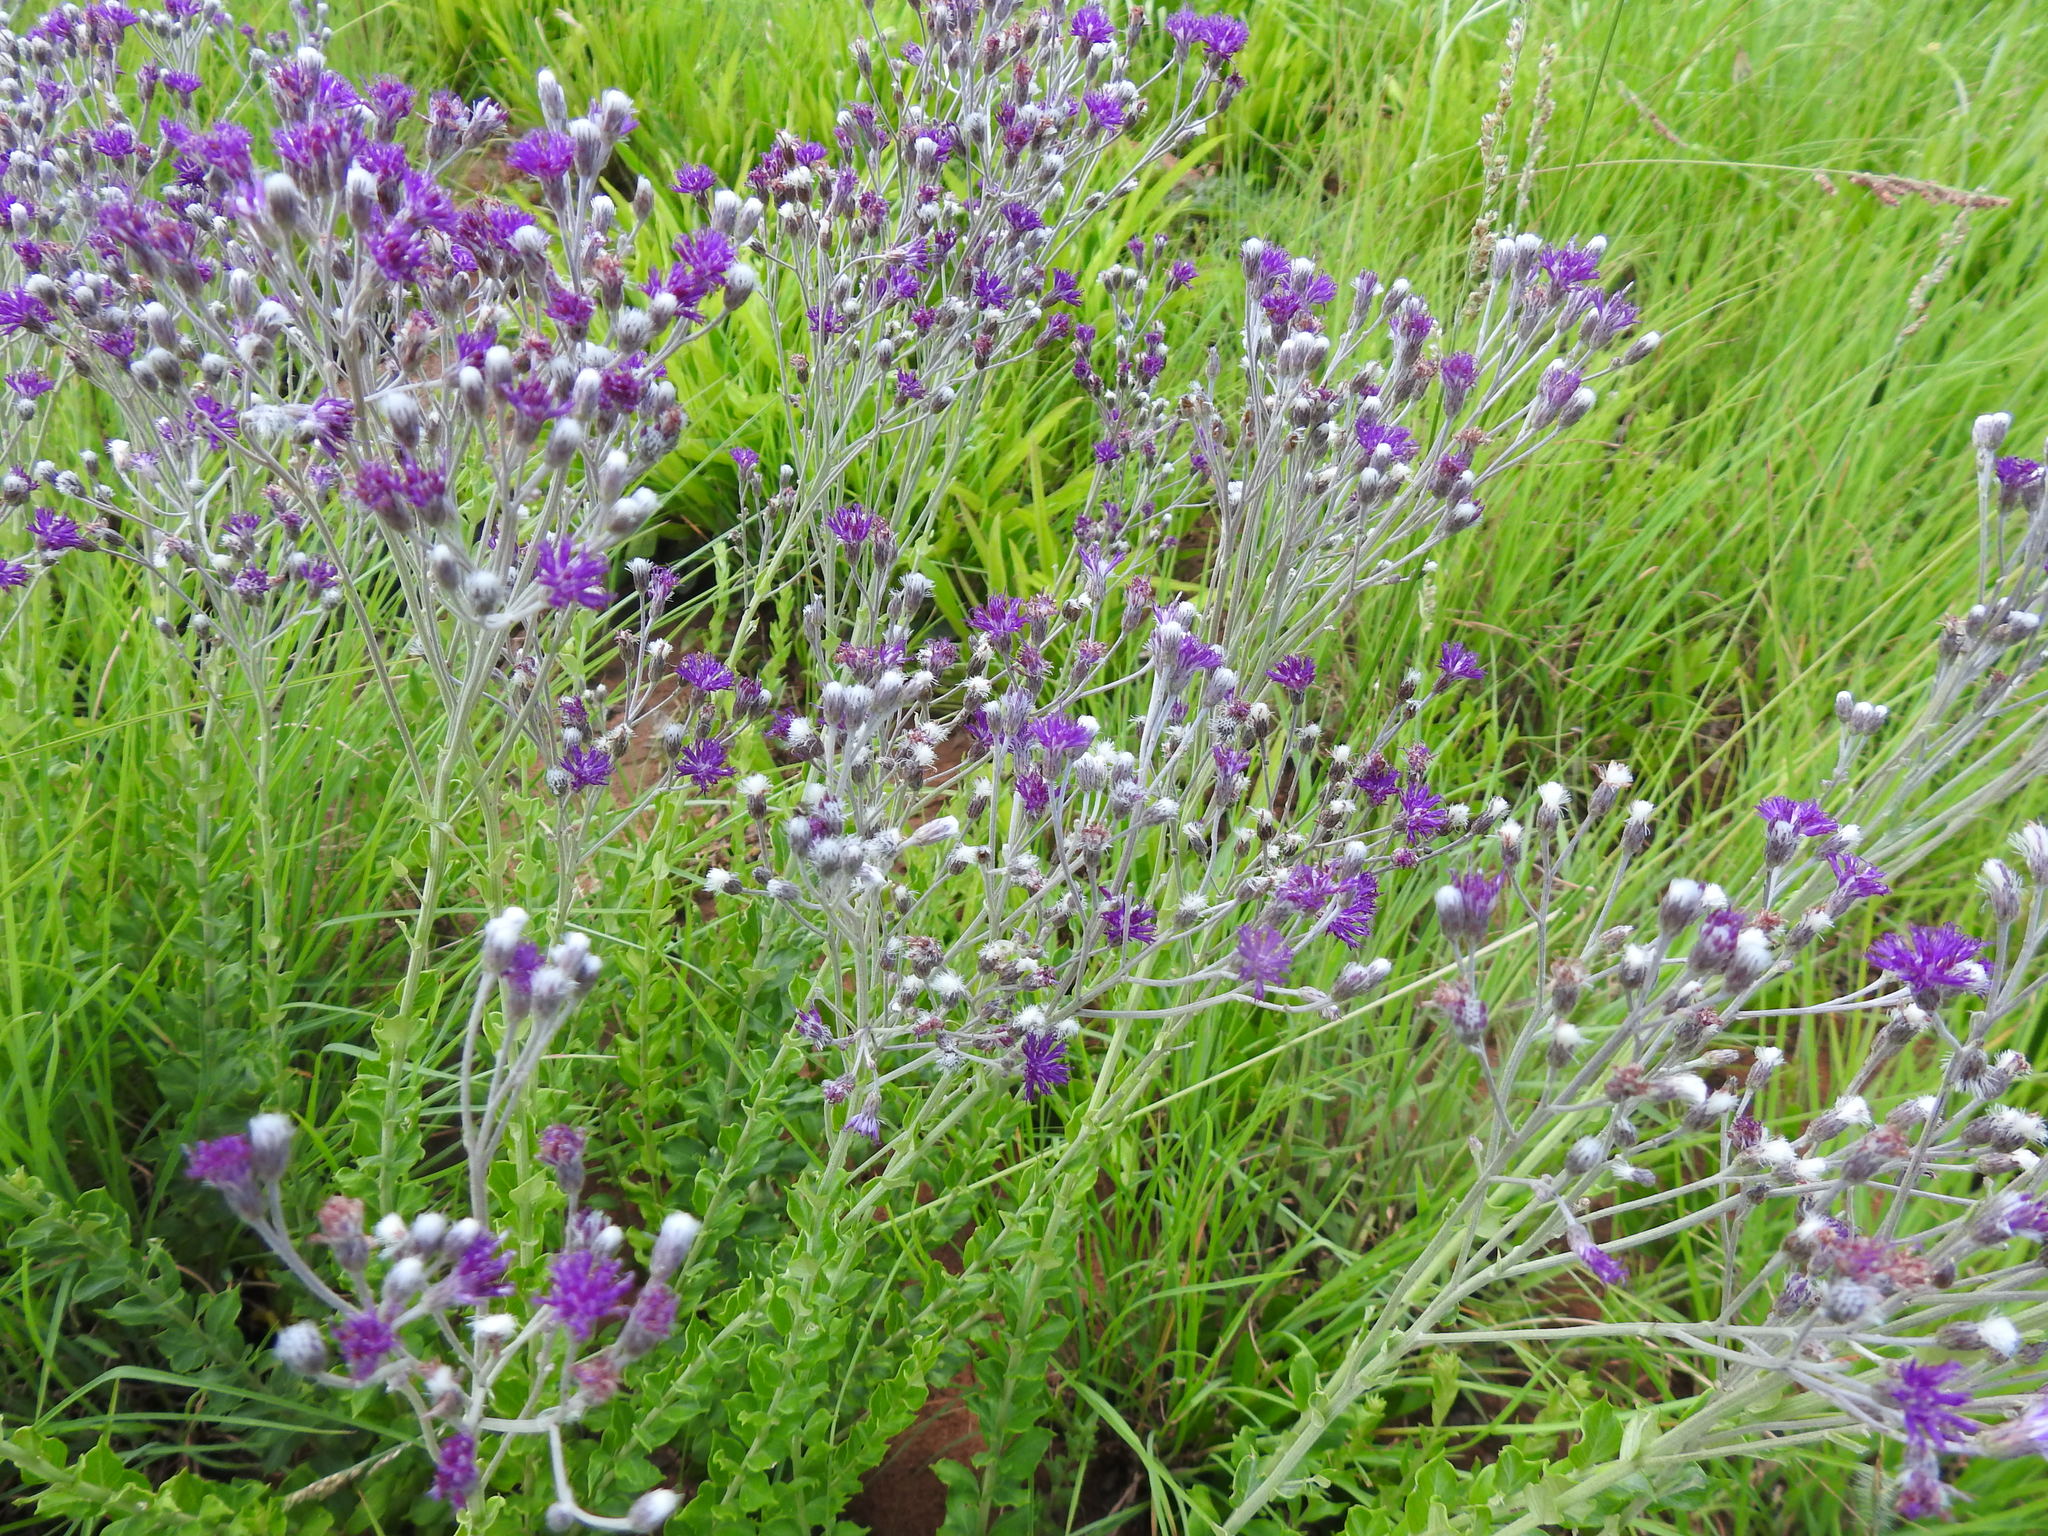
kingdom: Plantae
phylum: Tracheophyta
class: Magnoliopsida
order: Asterales
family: Asteraceae
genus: Hilliardiella
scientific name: Hilliardiella oligocephala
